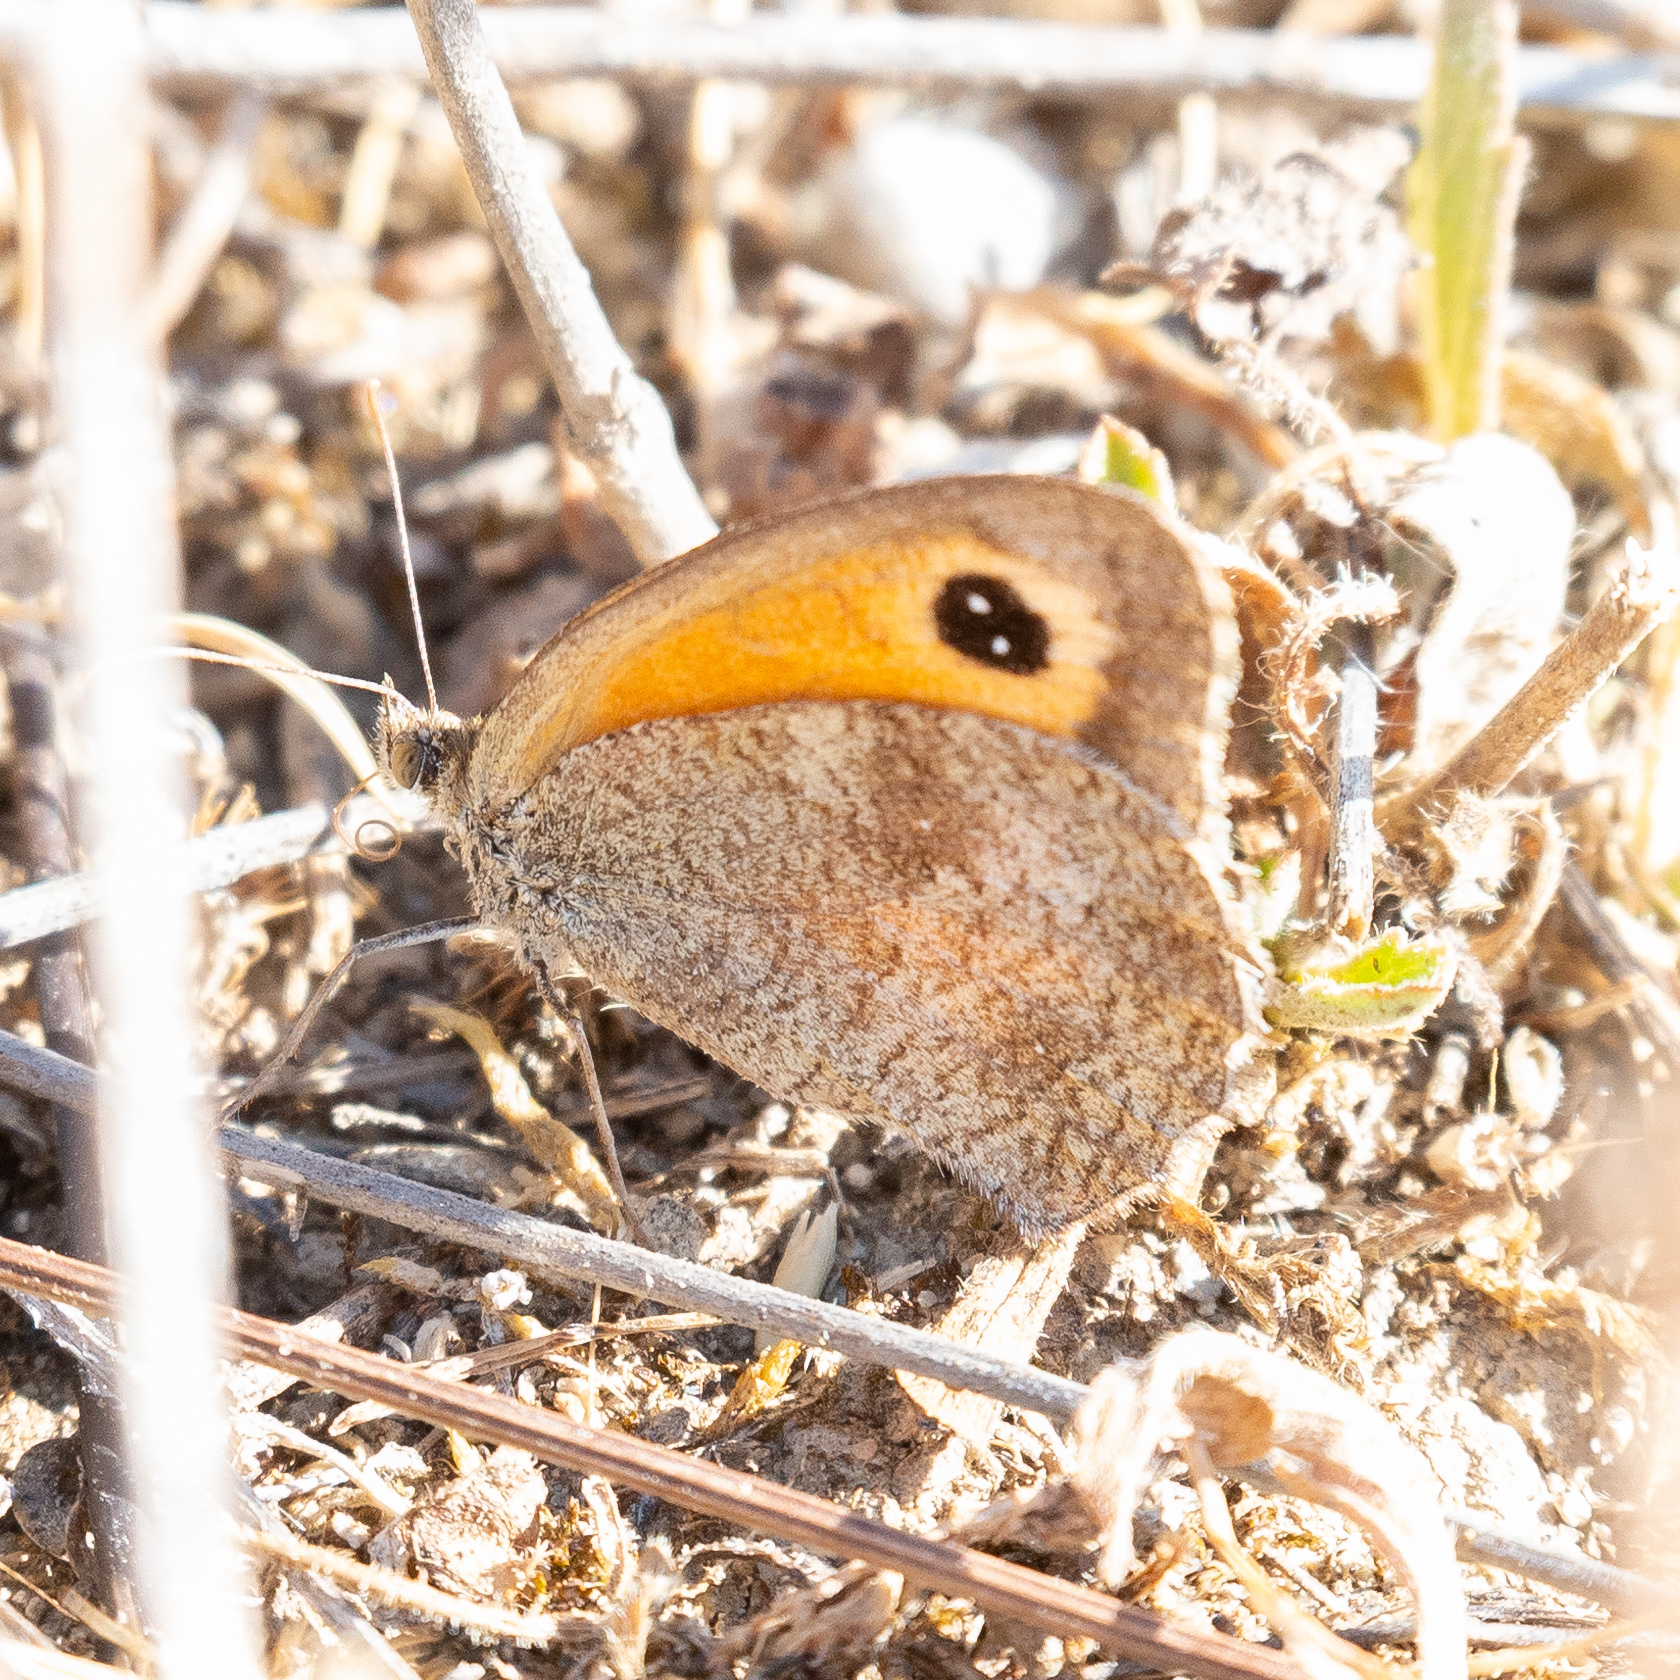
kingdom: Animalia
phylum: Arthropoda
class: Insecta
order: Lepidoptera
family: Nymphalidae
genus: Pyronia
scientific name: Pyronia tithonus
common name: Gatekeeper
